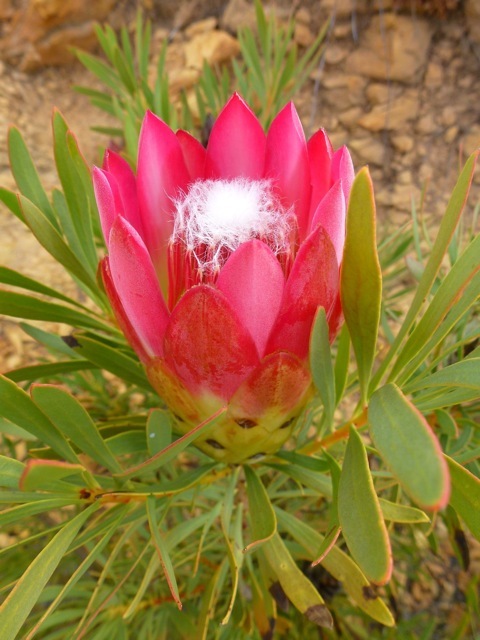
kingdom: Plantae
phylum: Tracheophyta
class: Magnoliopsida
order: Proteales
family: Proteaceae
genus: Protea
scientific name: Protea repens
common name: Sugarbush
